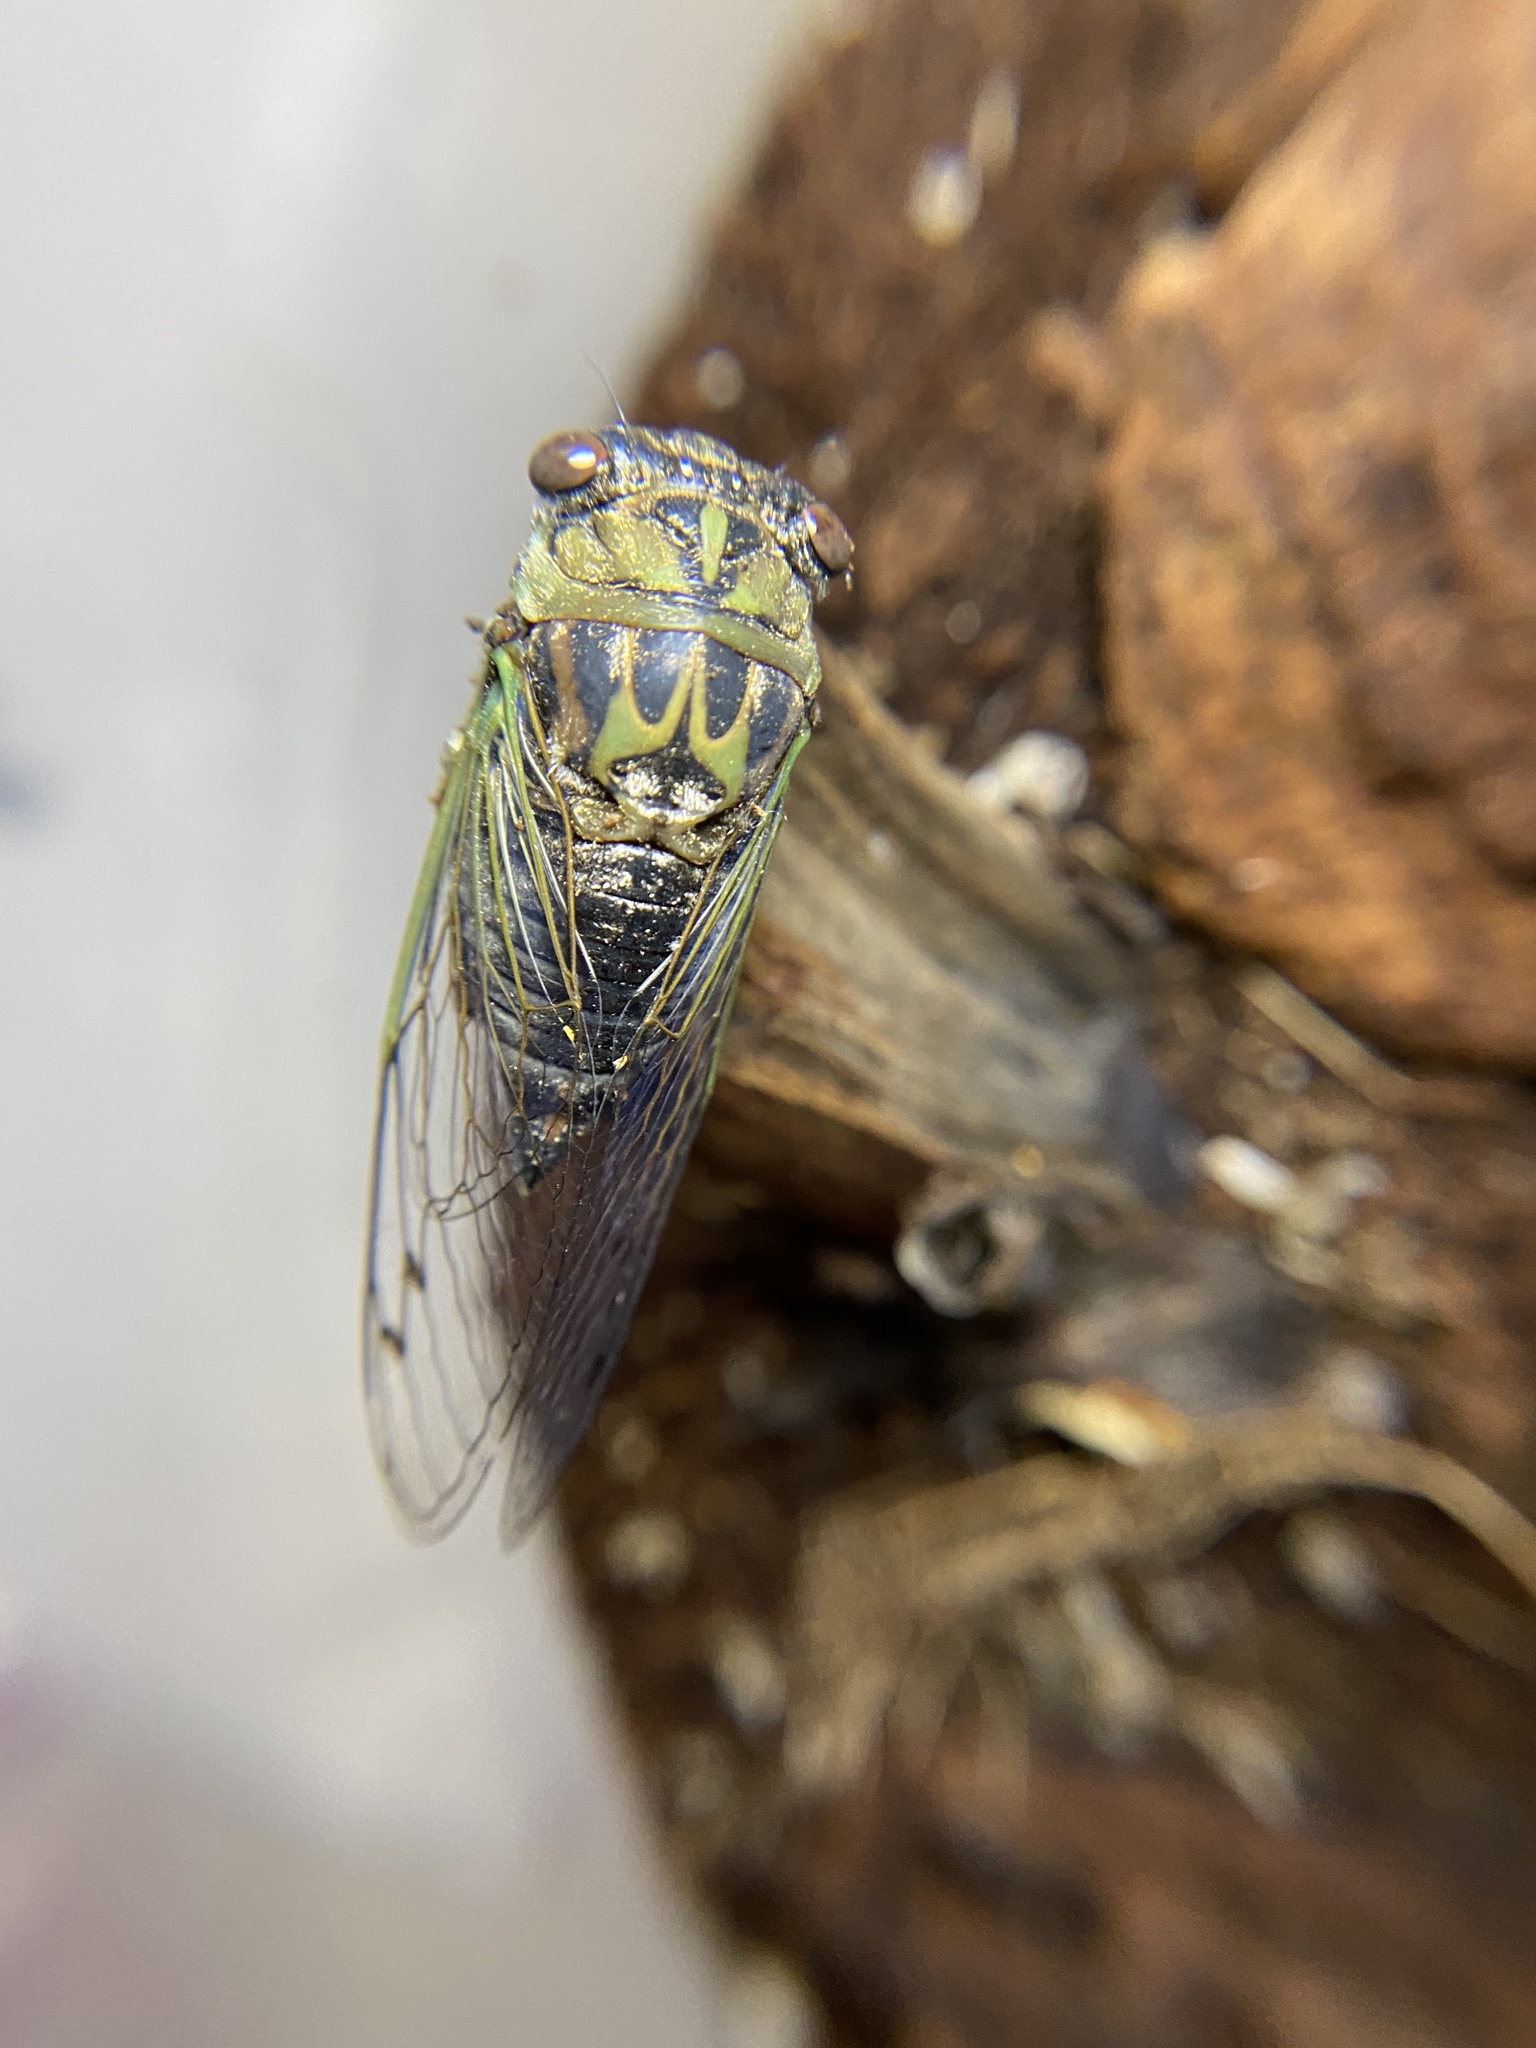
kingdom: Animalia
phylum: Arthropoda
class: Insecta
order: Hemiptera
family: Cicadidae
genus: Neotibicen
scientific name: Neotibicen canicularis
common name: God-day cicada
